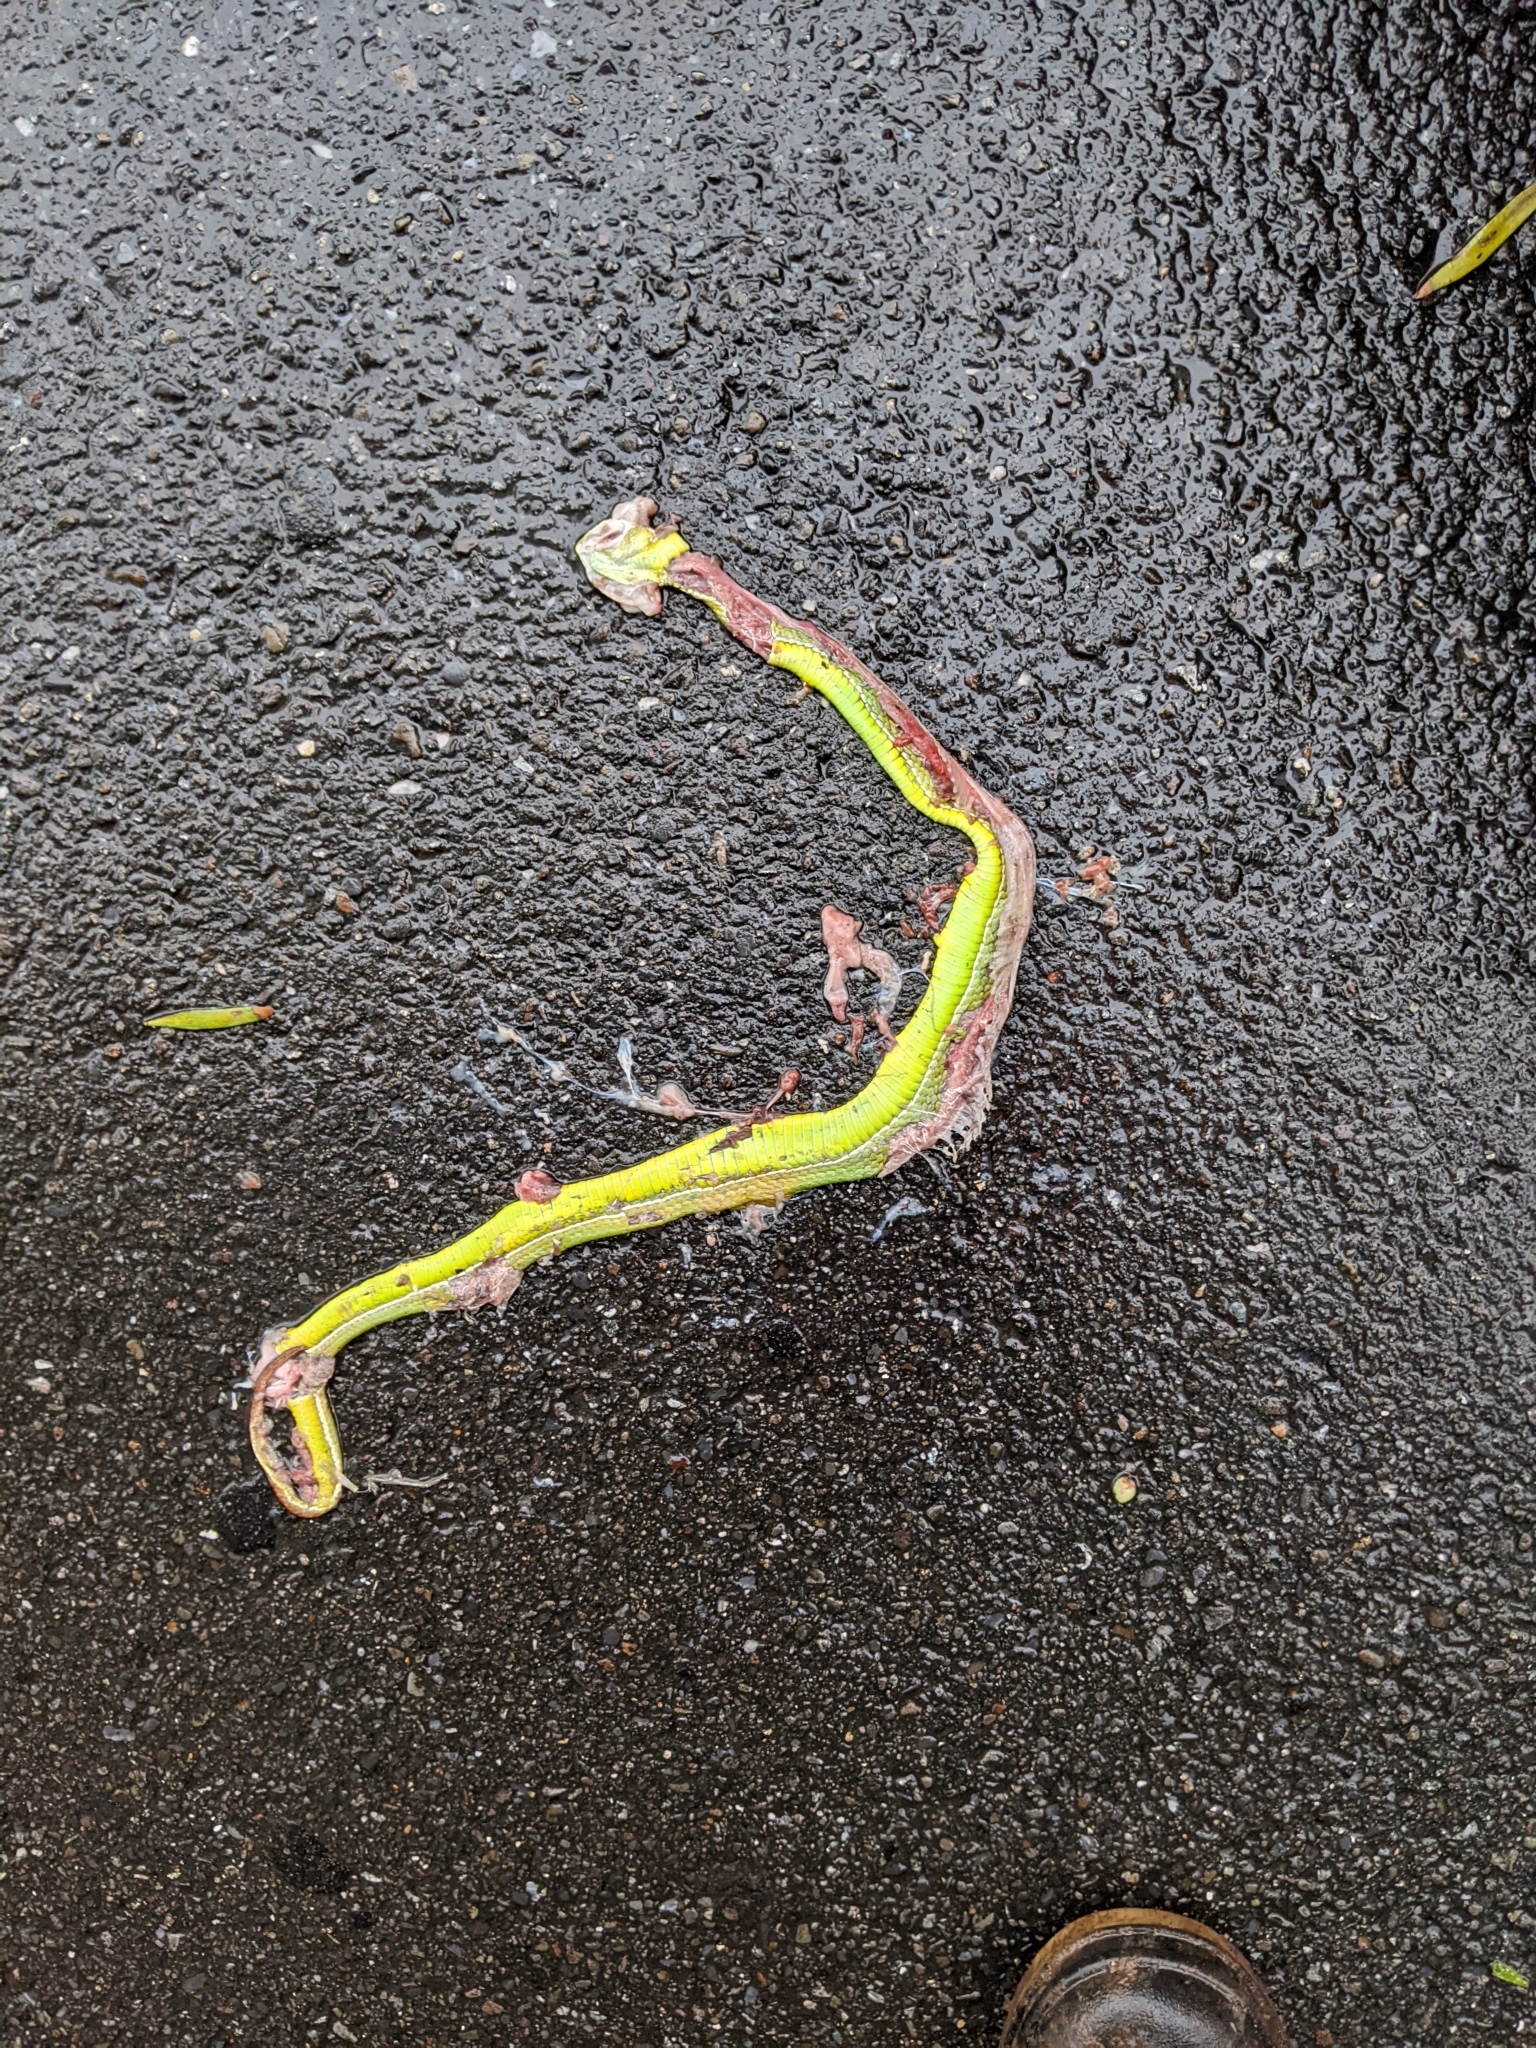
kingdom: Animalia
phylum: Chordata
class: Squamata
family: Viperidae
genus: Trimeresurus
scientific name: Trimeresurus stejnegeri
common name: Chen’s bamboo pit viper
